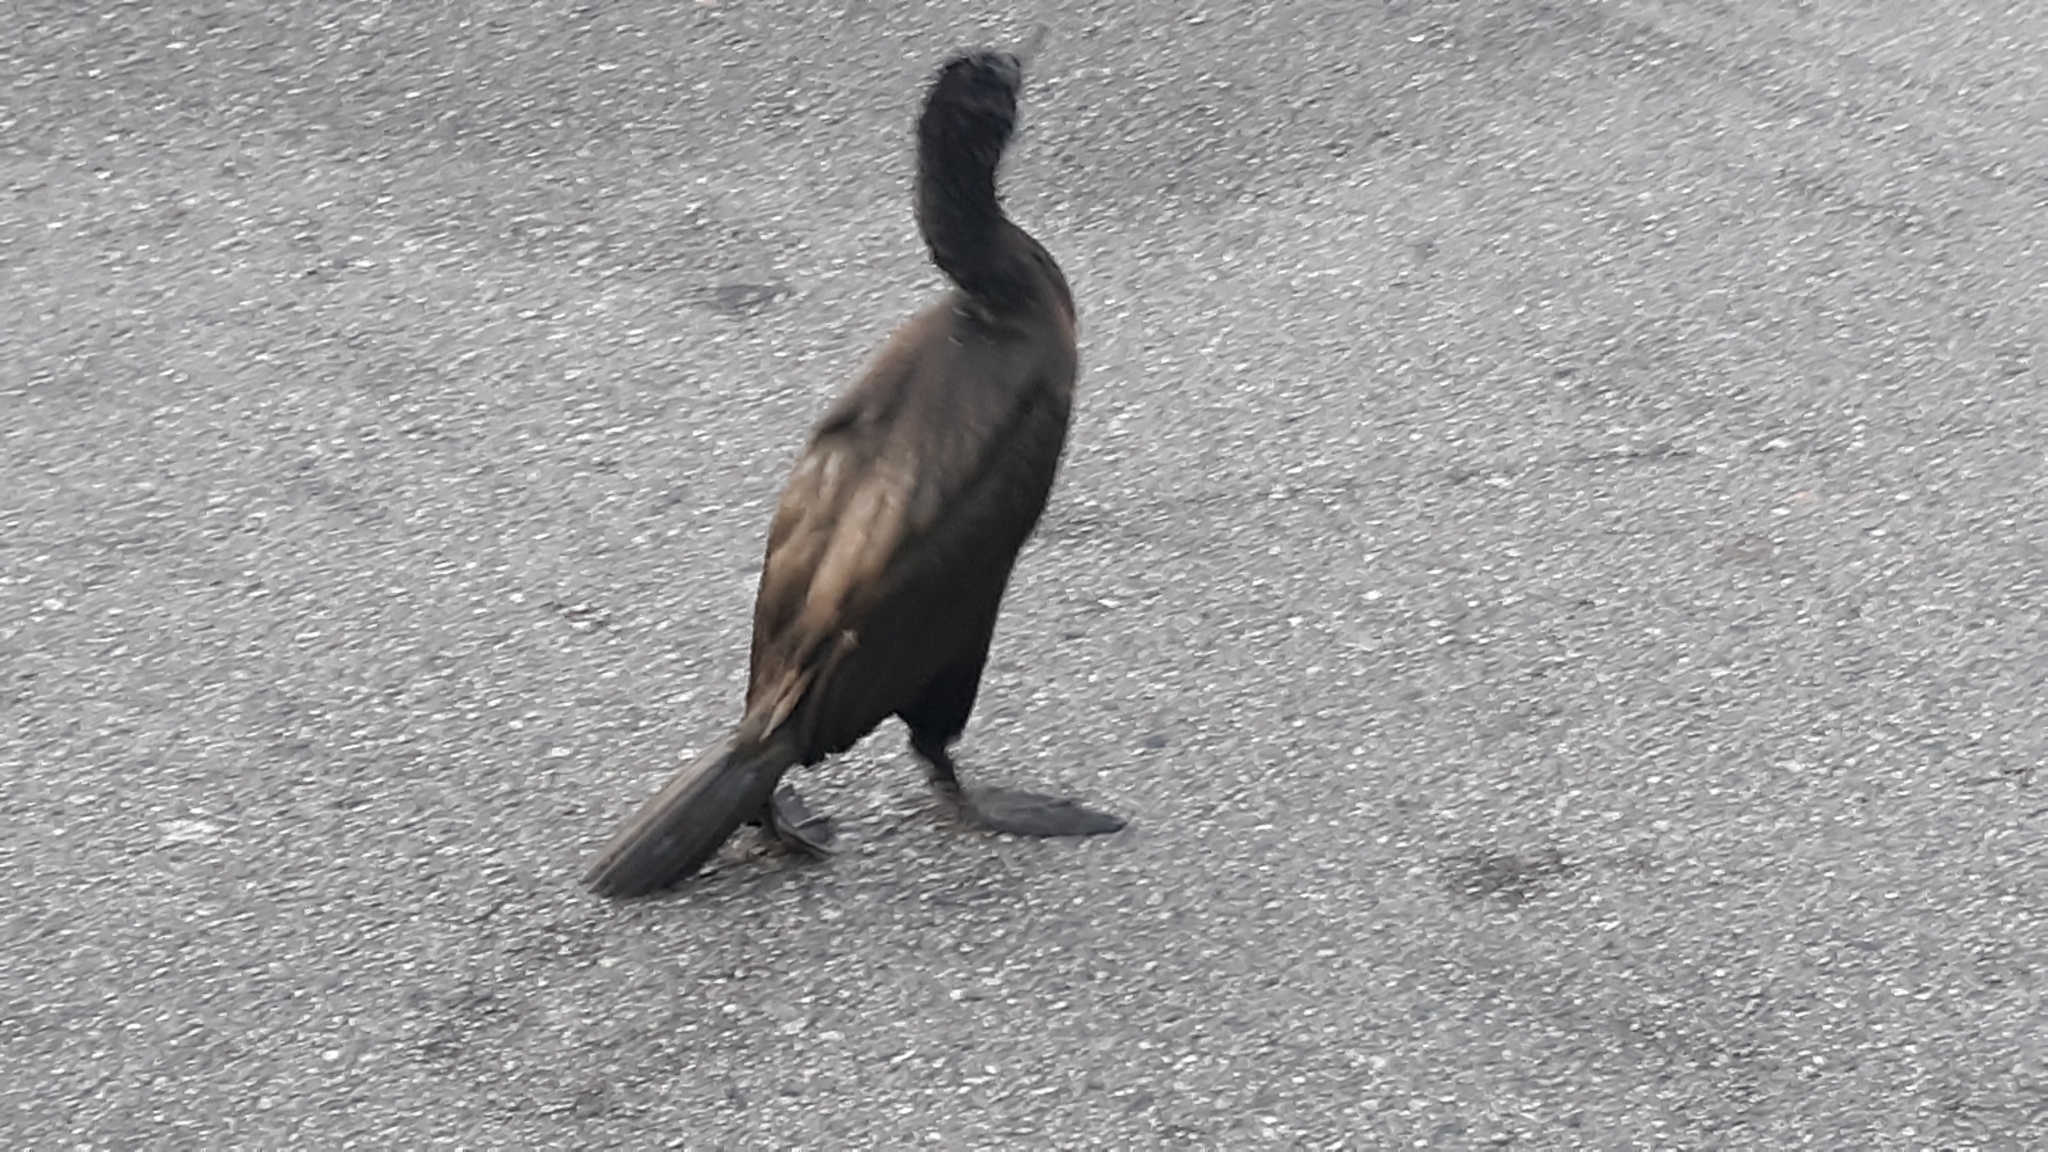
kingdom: Animalia
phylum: Chordata
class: Aves
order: Suliformes
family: Phalacrocoracidae
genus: Phalacrocorax
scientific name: Phalacrocorax auritus
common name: Double-crested cormorant
